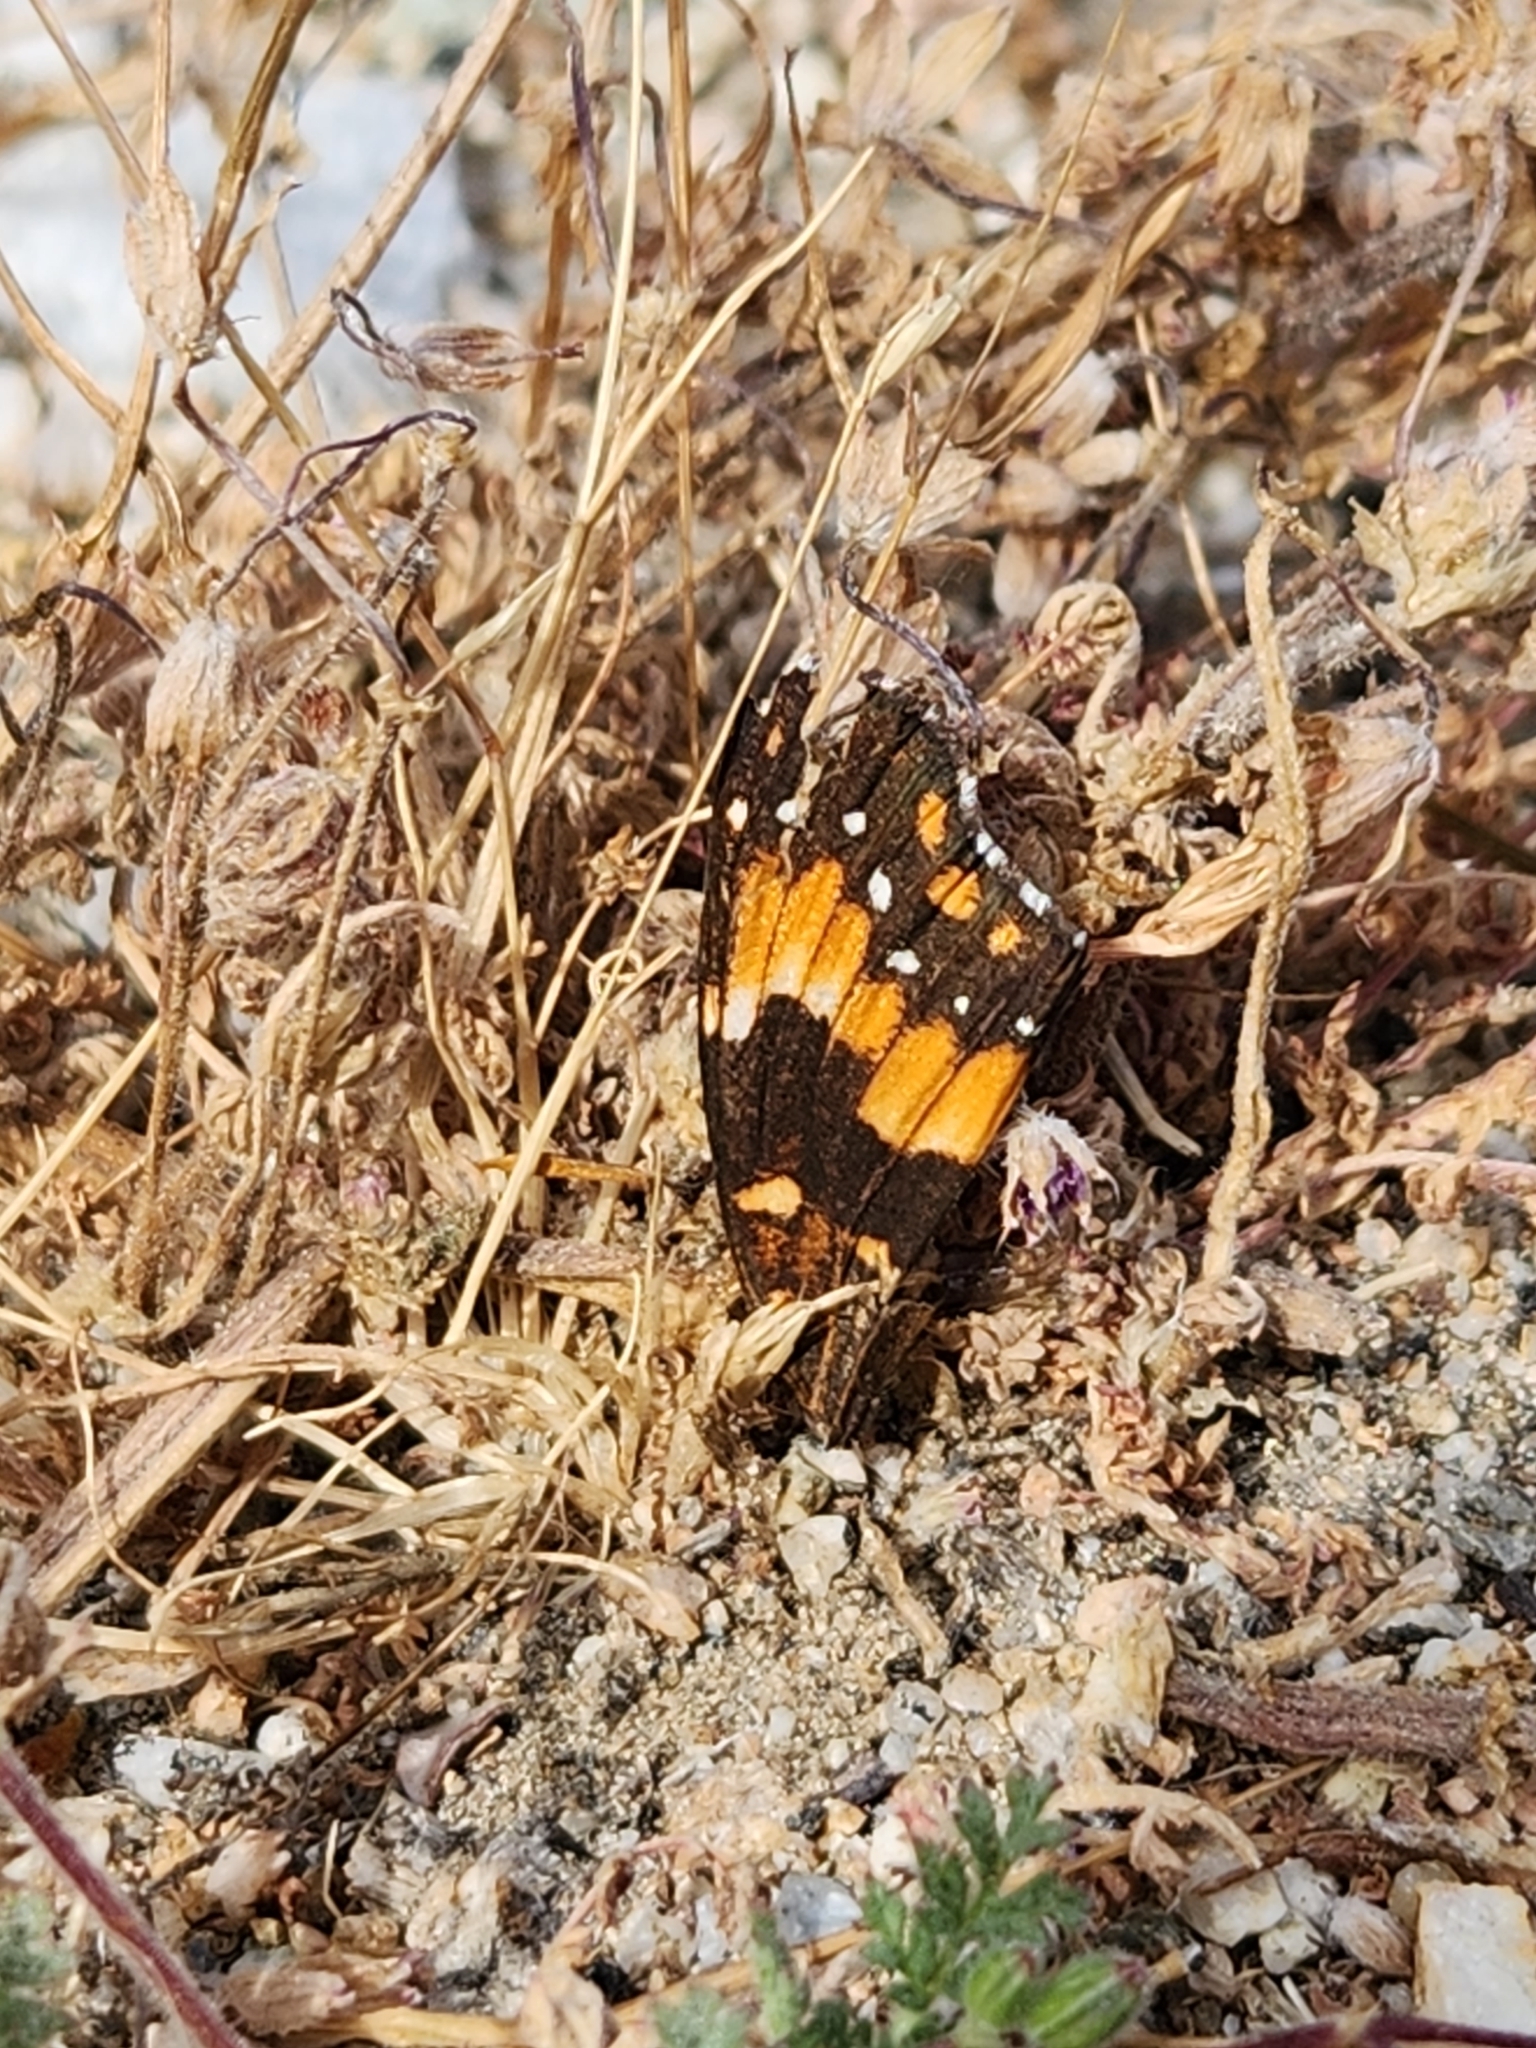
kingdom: Animalia
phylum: Arthropoda
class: Insecta
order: Lepidoptera
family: Nymphalidae
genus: Chlosyne
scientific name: Chlosyne californica
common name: California patch
